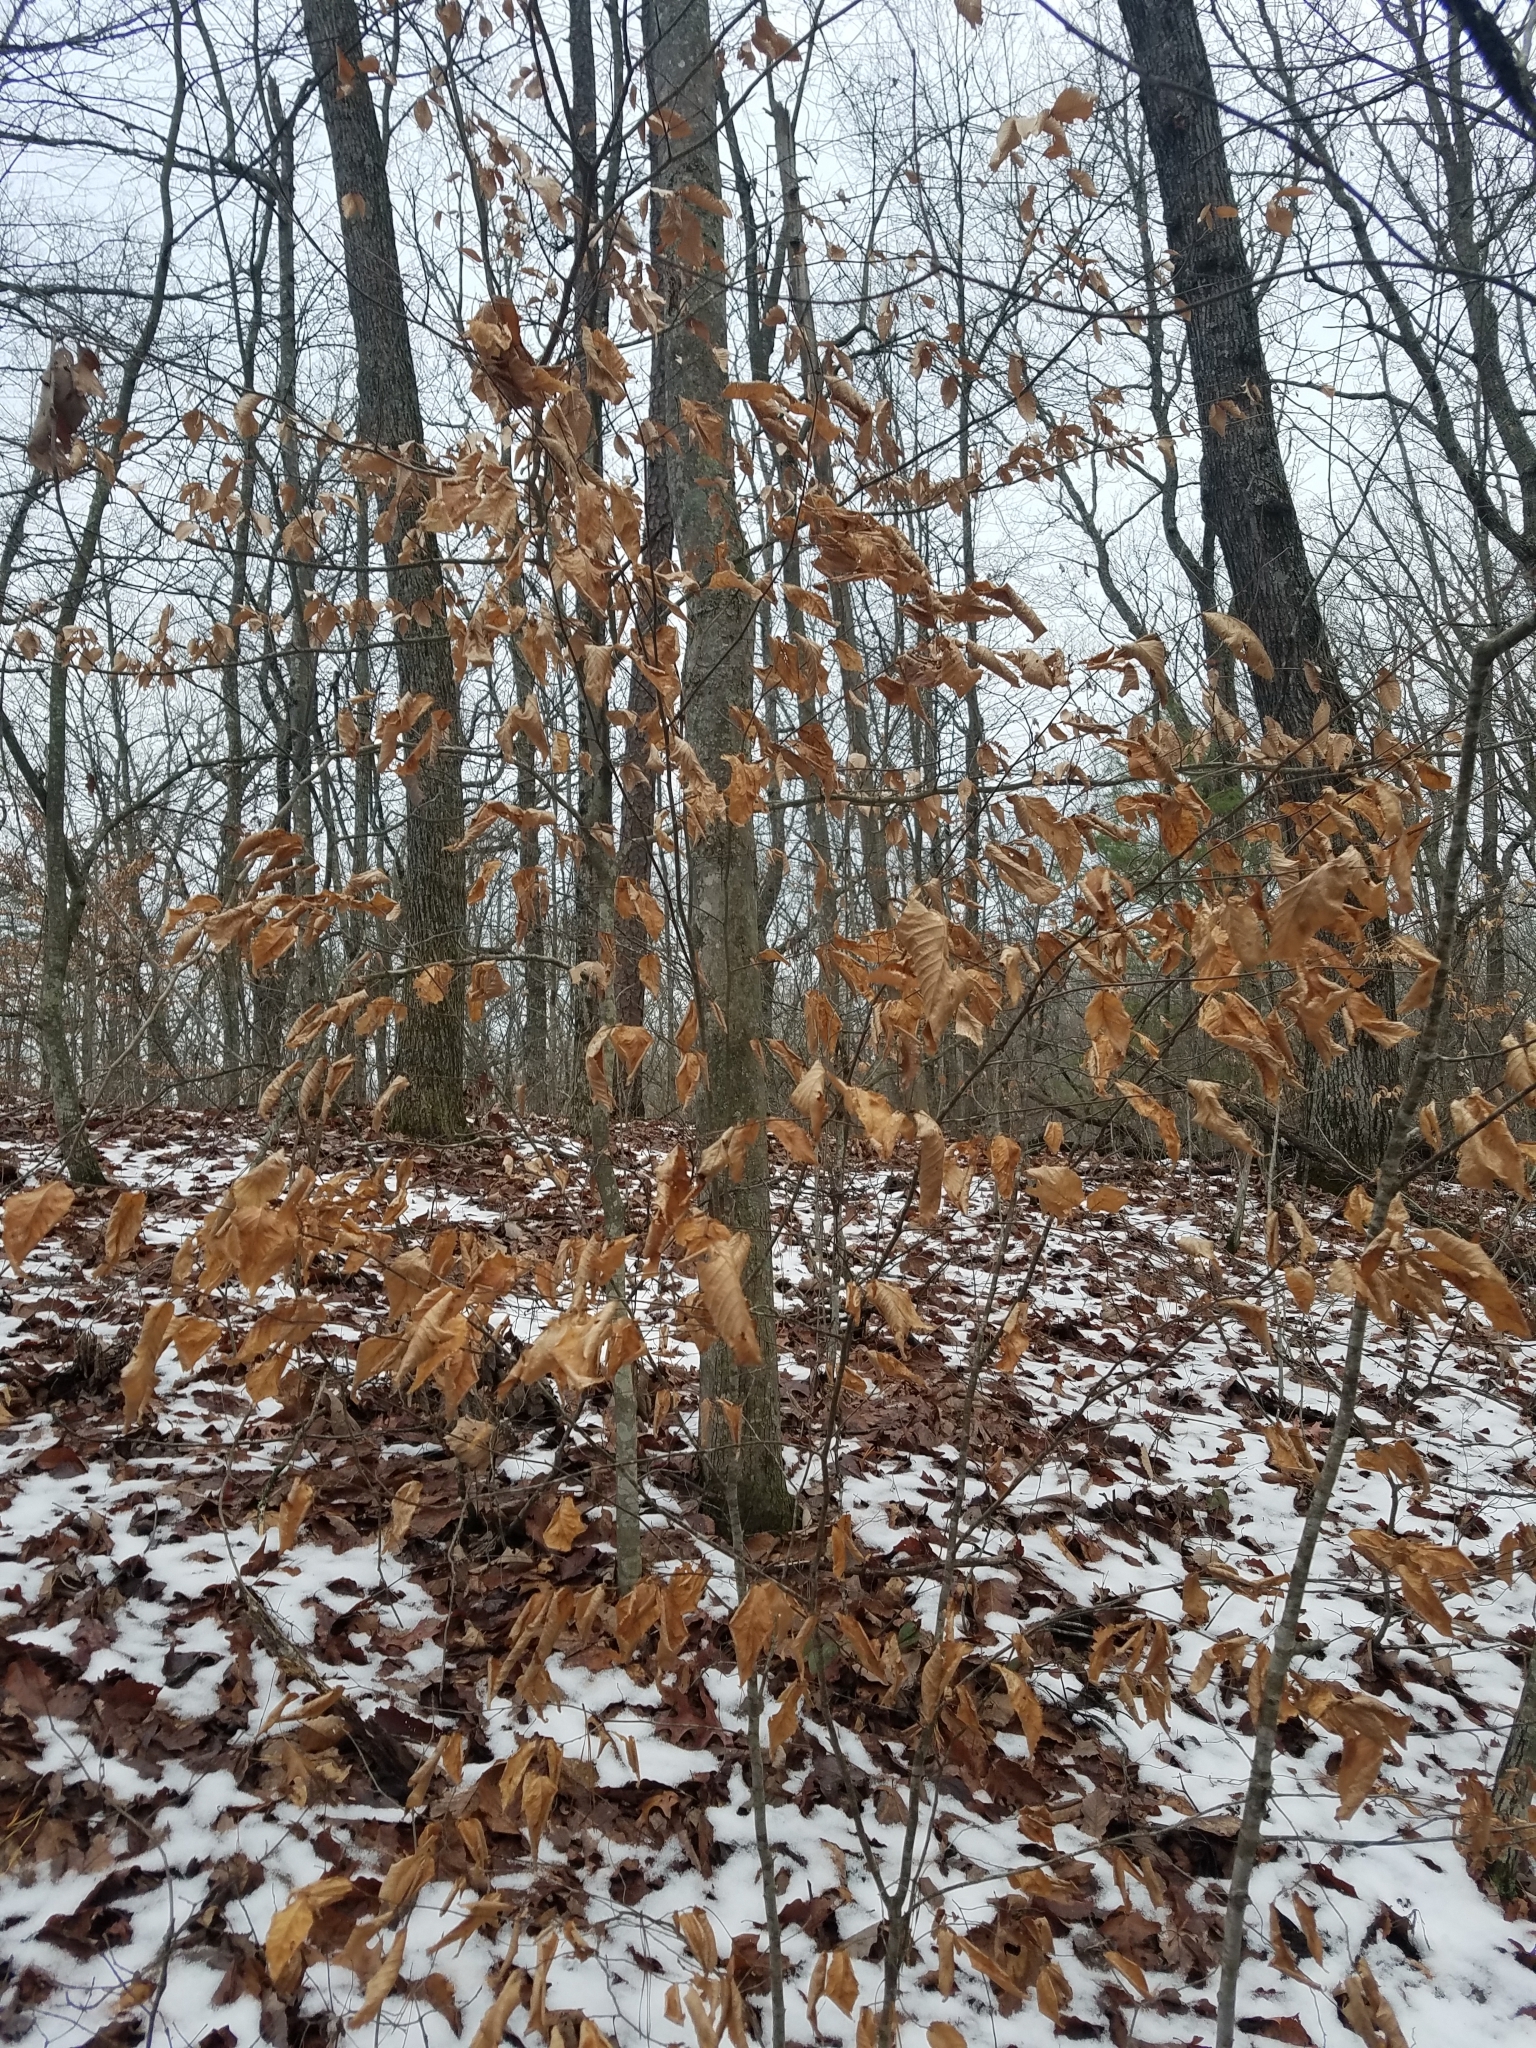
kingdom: Plantae
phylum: Tracheophyta
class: Magnoliopsida
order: Fagales
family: Fagaceae
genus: Fagus
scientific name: Fagus grandifolia
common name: American beech
